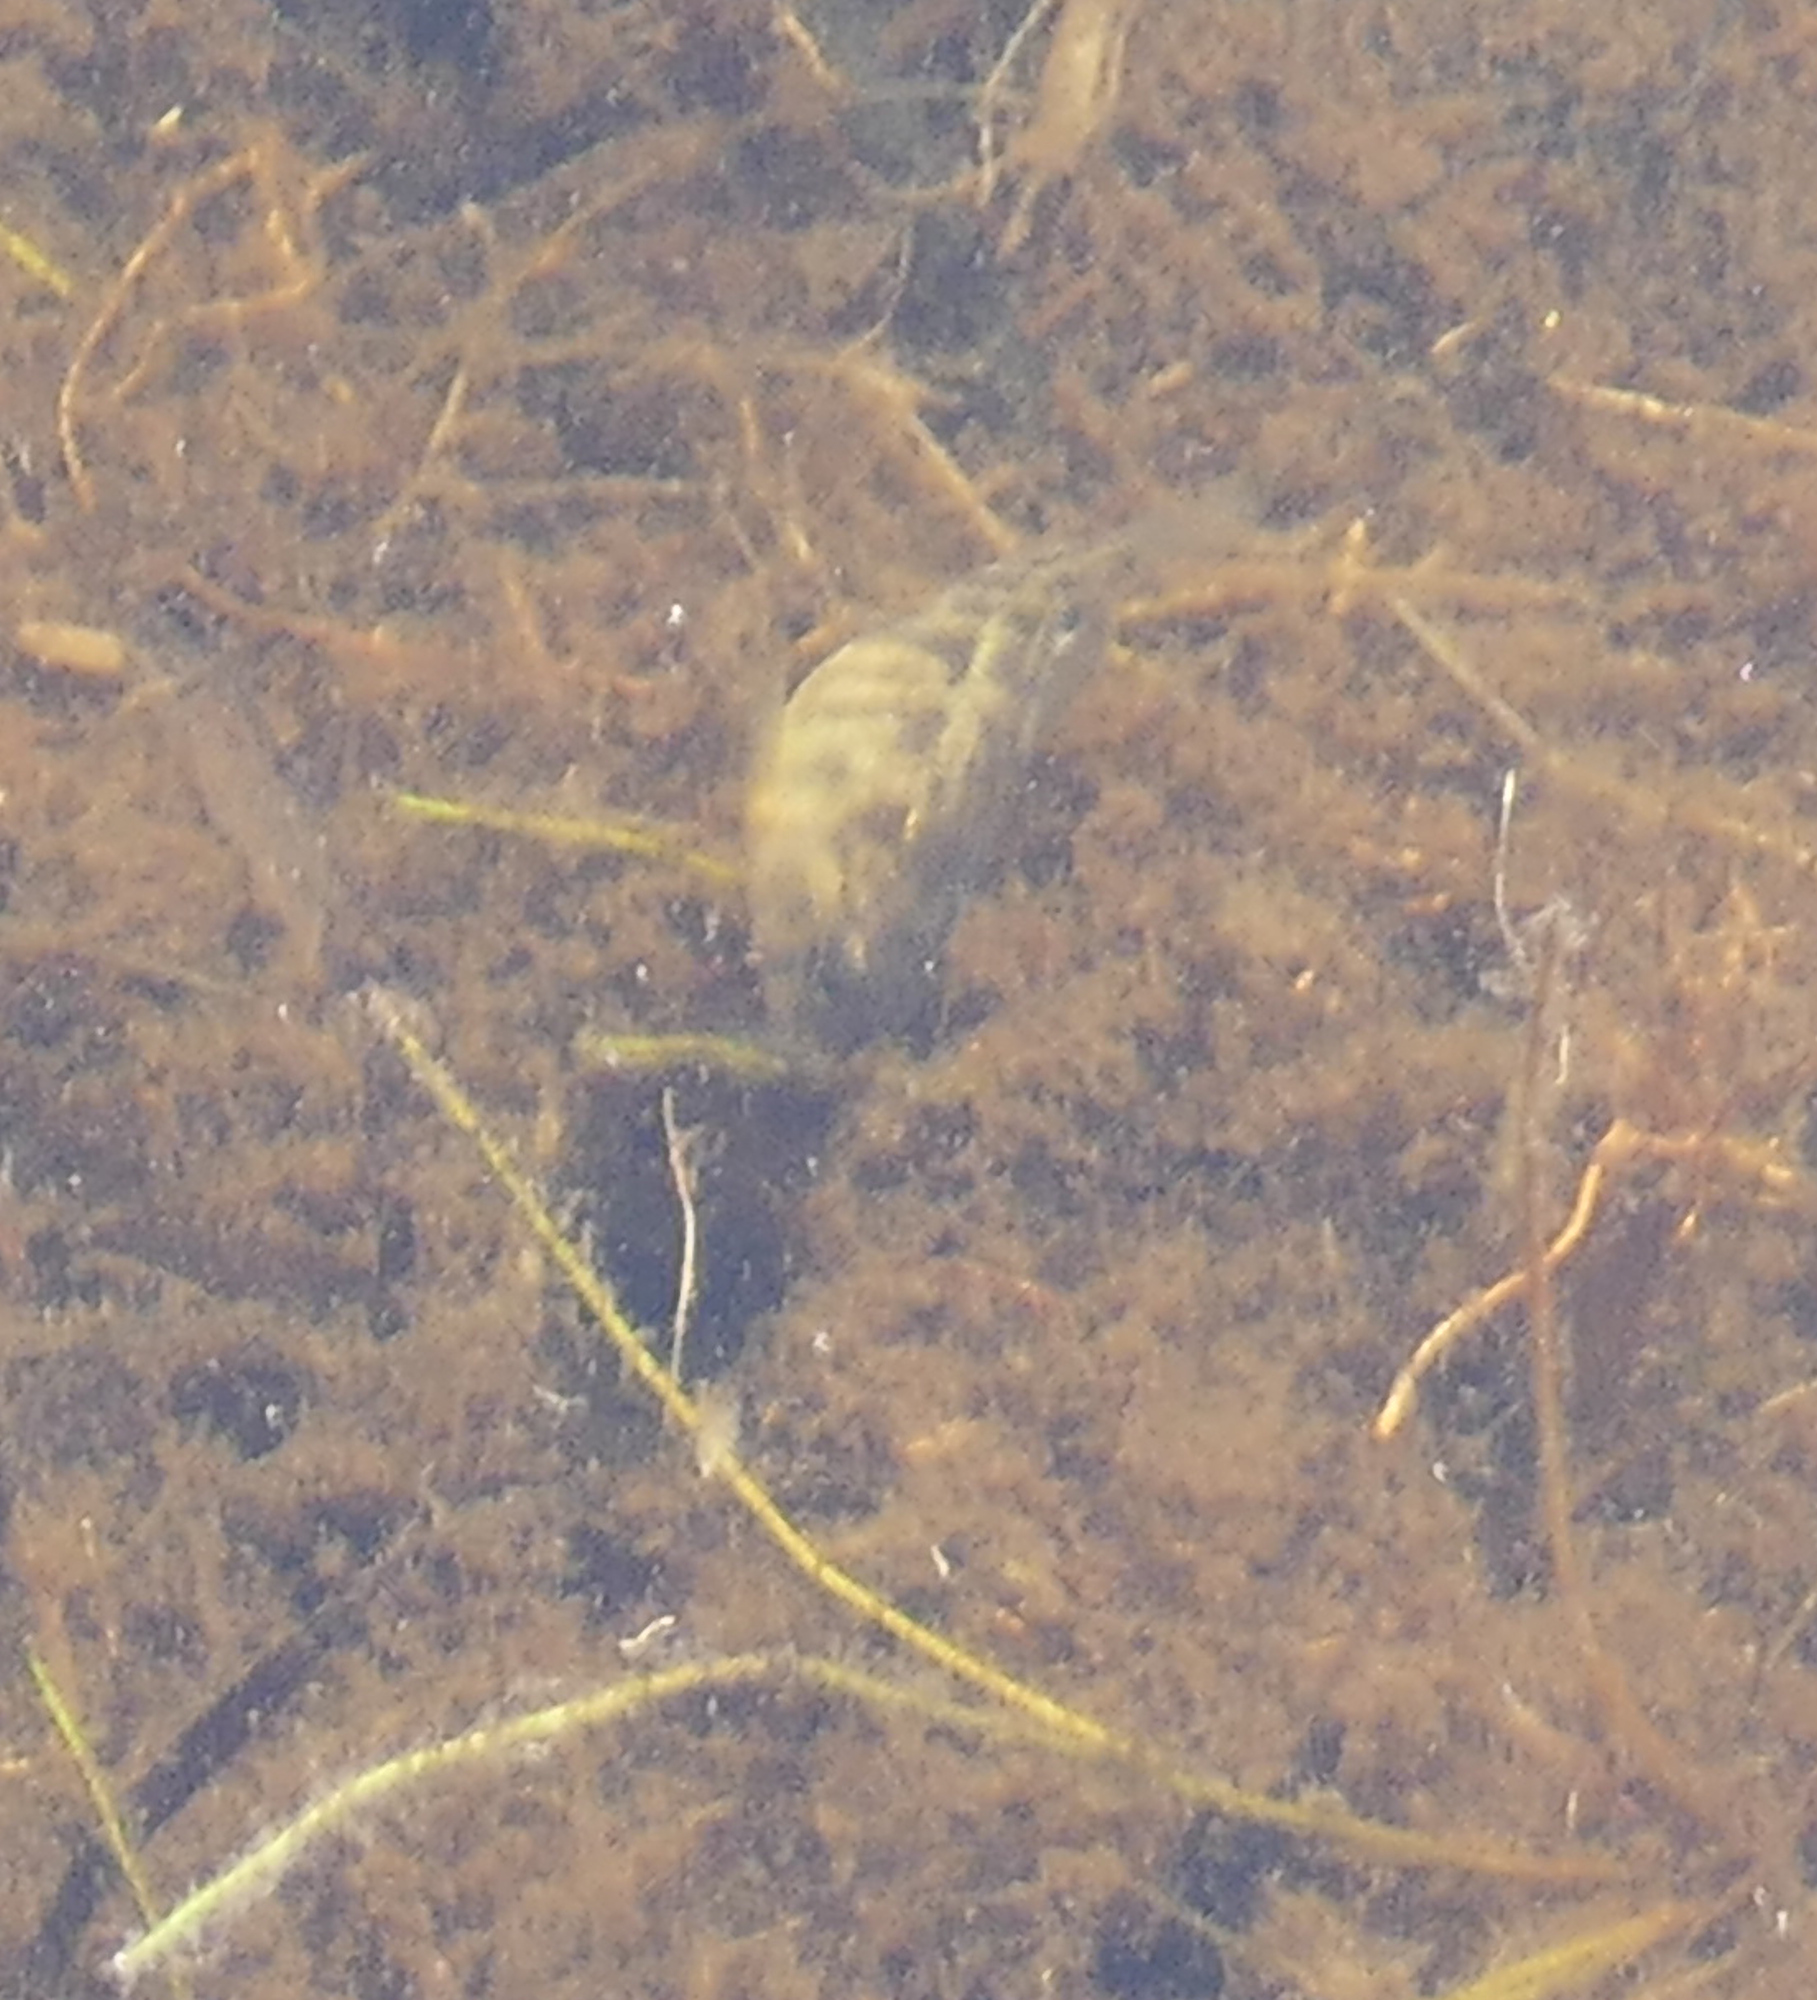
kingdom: Animalia
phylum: Chordata
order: Cyprinodontiformes
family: Cyprinodontidae
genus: Cyprinodon
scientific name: Cyprinodon variegatus
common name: Sheepshead minnow
